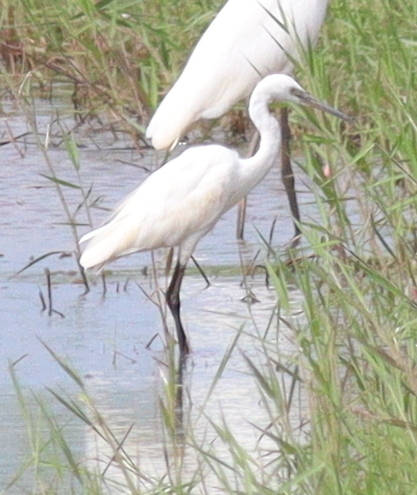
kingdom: Animalia
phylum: Chordata
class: Aves
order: Pelecaniformes
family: Ardeidae
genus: Egretta
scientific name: Egretta garzetta
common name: Little egret
